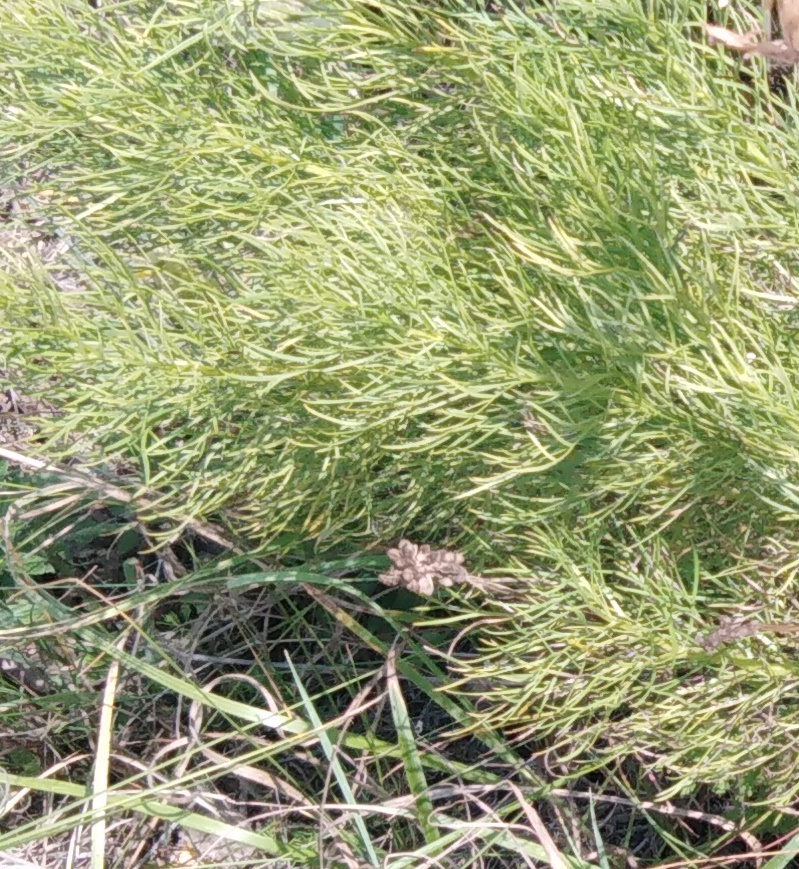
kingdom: Plantae
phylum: Tracheophyta
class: Magnoliopsida
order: Ranunculales
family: Ranunculaceae
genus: Adonis
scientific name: Adonis vernalis
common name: Yellow pheasants-eye
